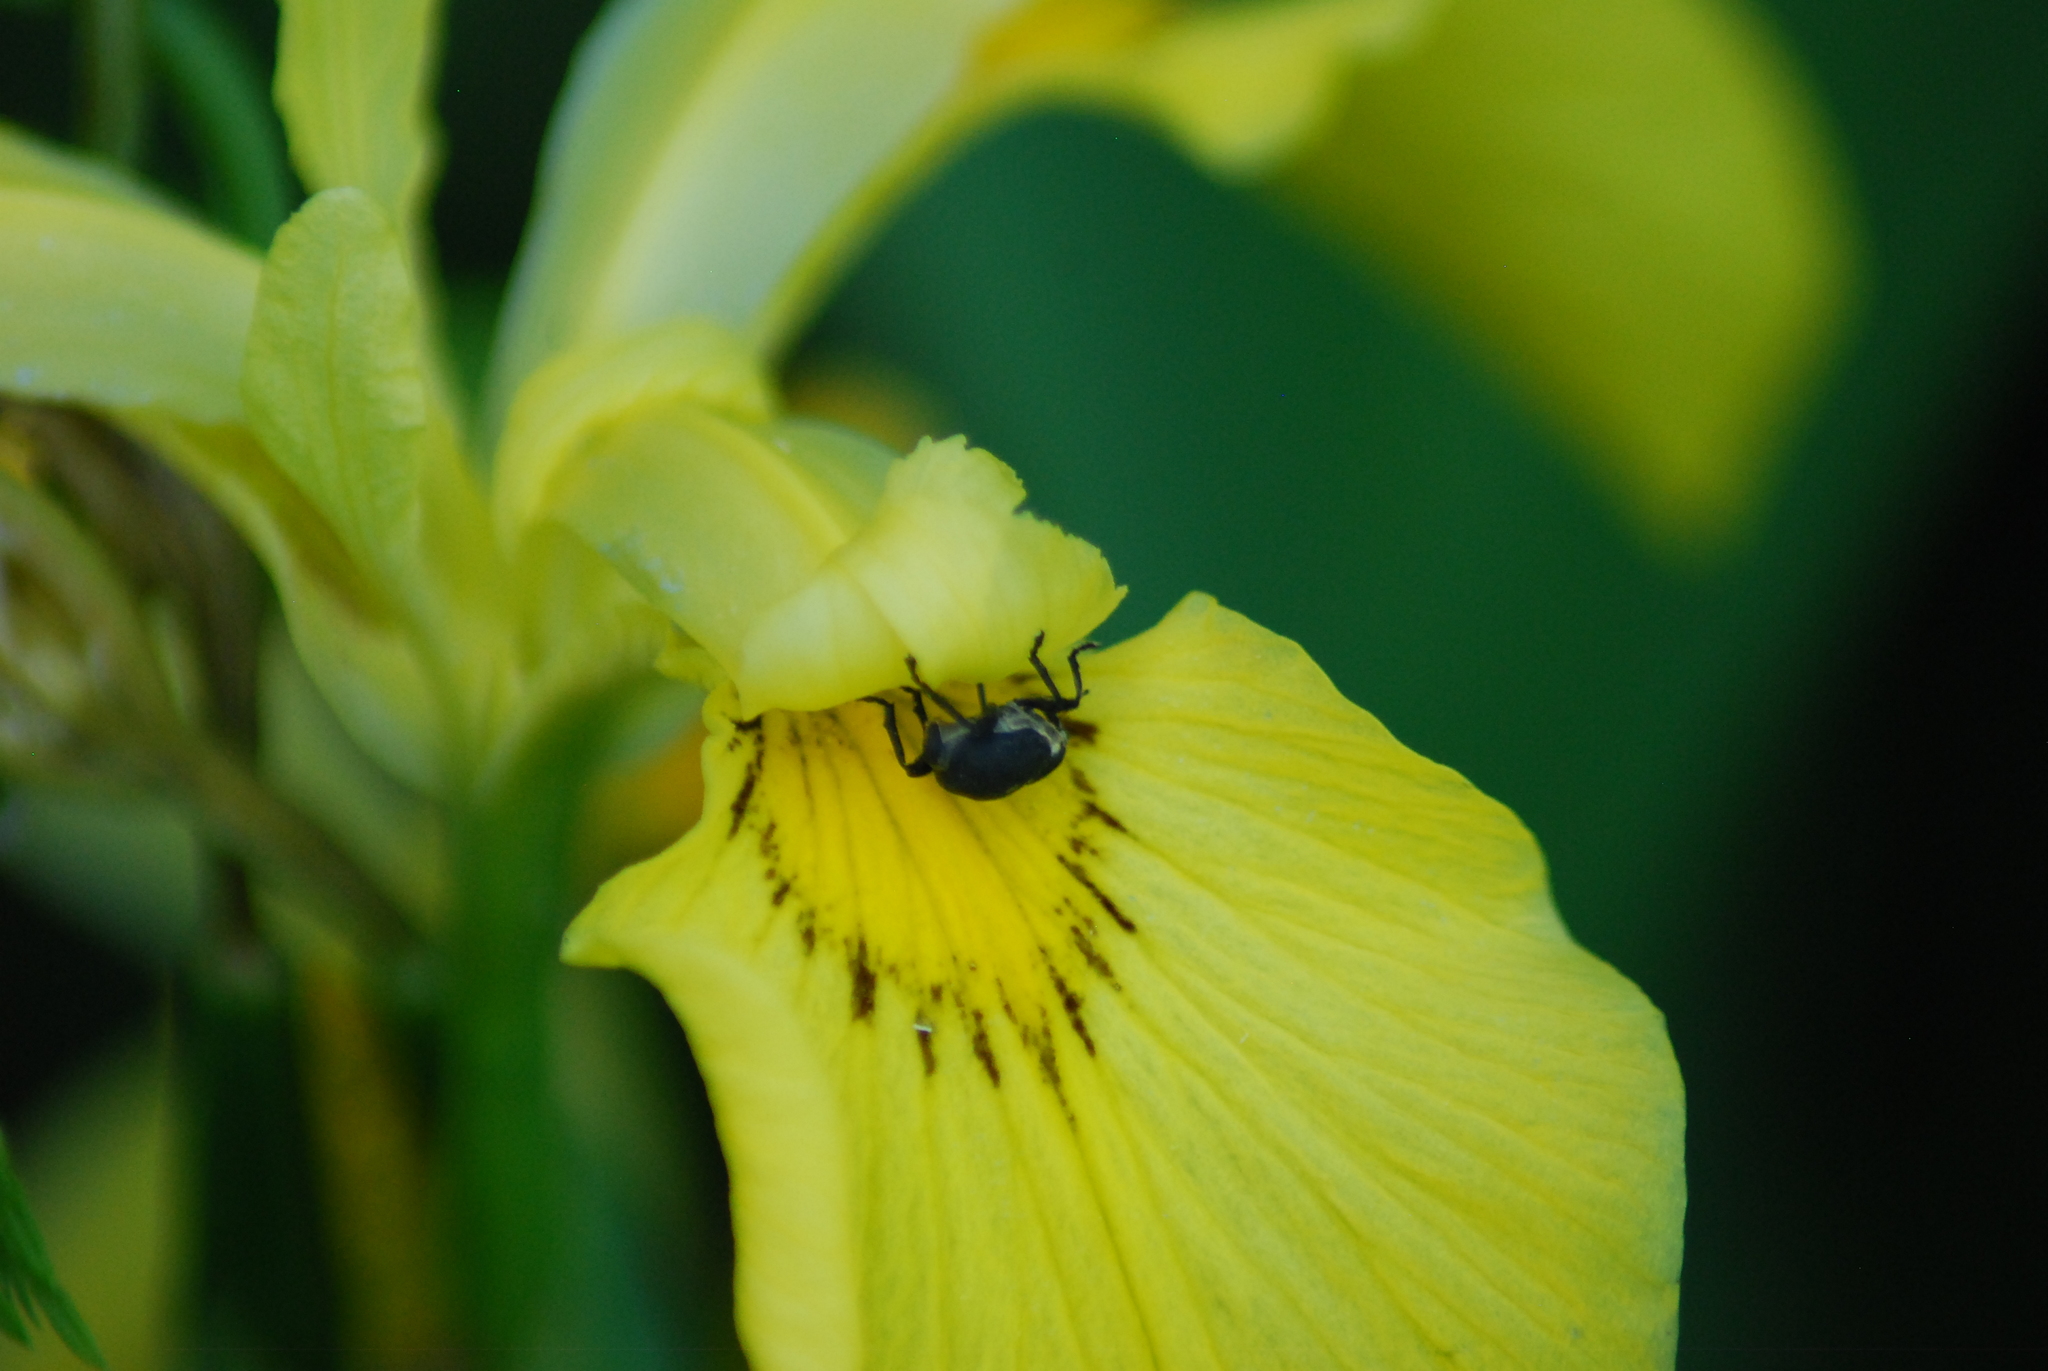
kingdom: Animalia
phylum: Arthropoda
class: Insecta
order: Coleoptera
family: Curculionidae
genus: Mononychus
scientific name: Mononychus punctumalbum
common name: Iris weevil
